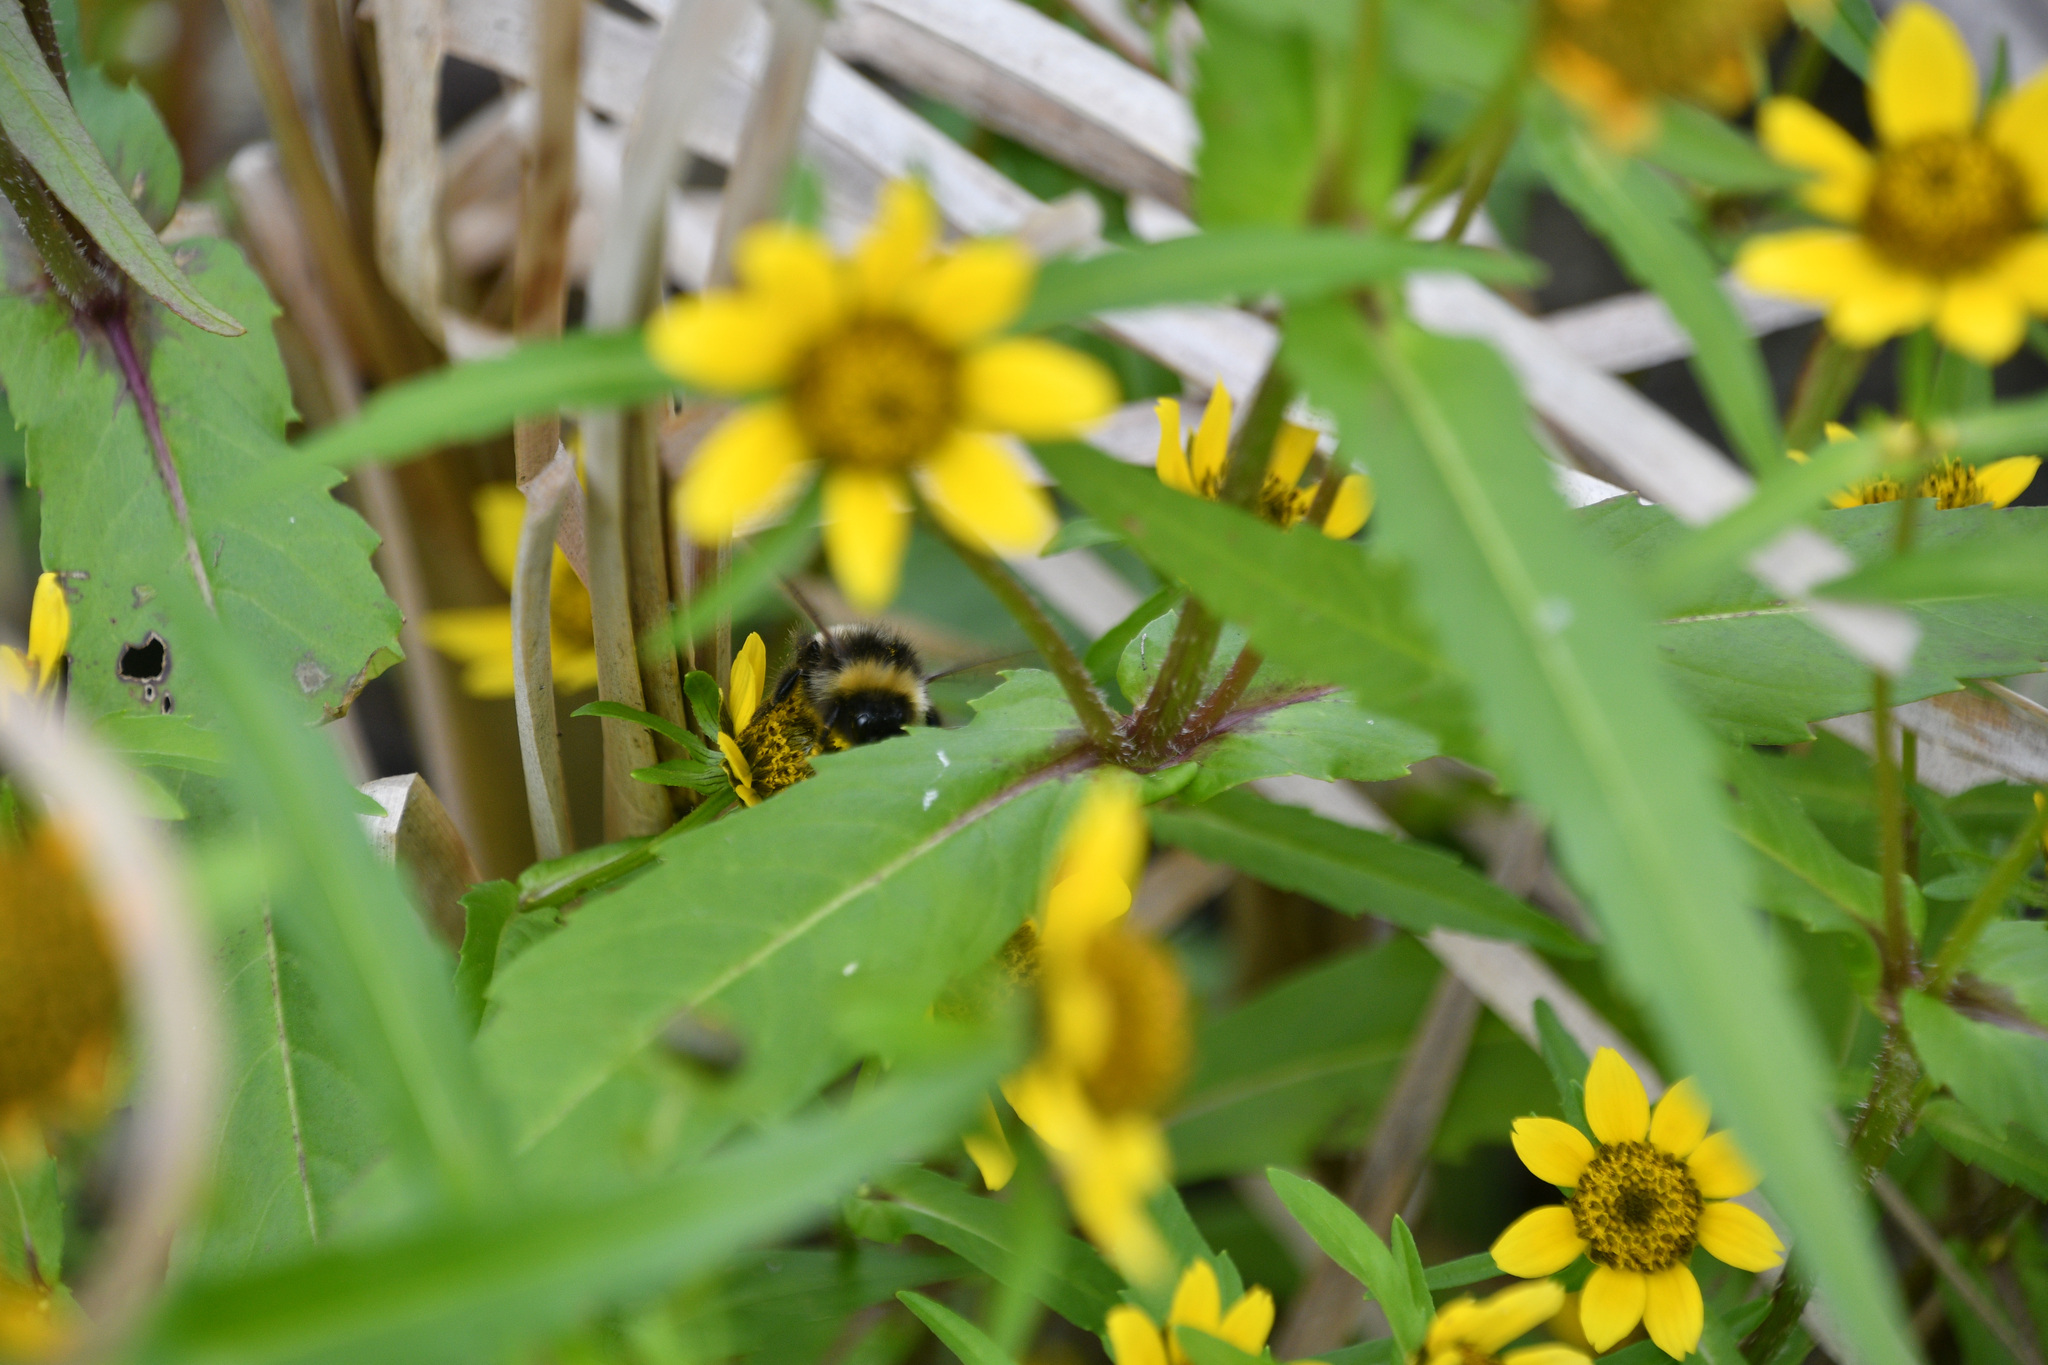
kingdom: Animalia
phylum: Arthropoda
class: Insecta
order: Hymenoptera
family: Apidae
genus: Bombus
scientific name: Bombus cryptarum
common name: Cryptic bumblebee
